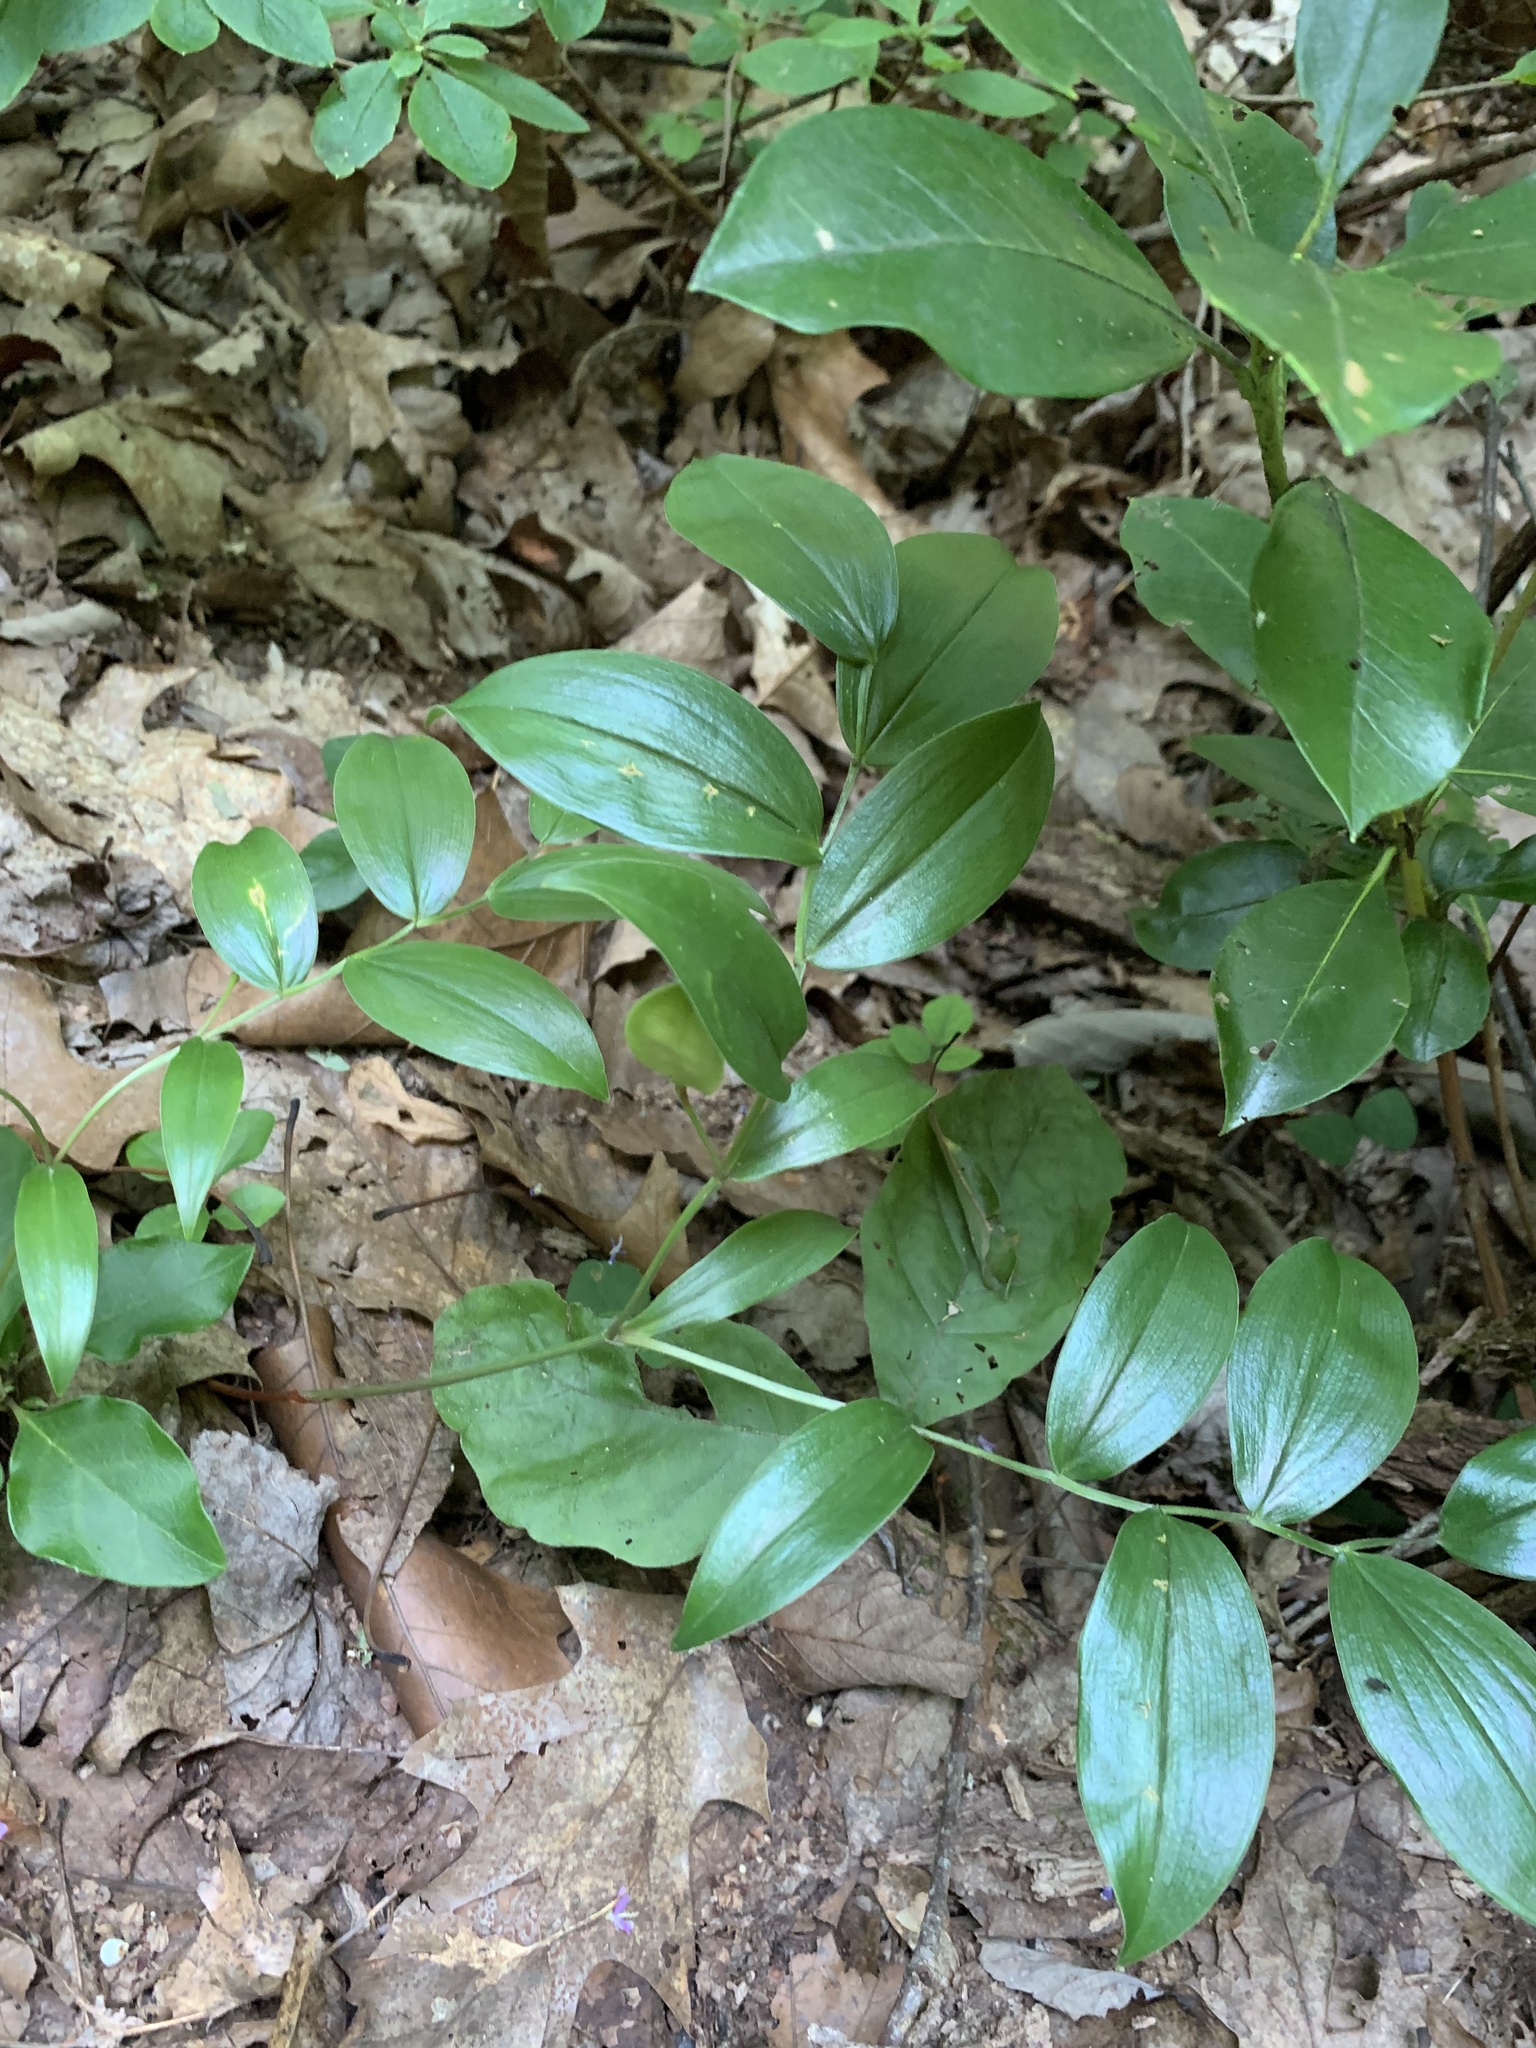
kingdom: Plantae
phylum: Tracheophyta
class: Liliopsida
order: Liliales
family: Colchicaceae
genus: Uvularia
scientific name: Uvularia puberula
